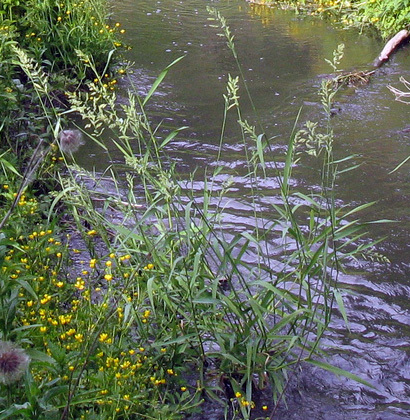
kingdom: Plantae
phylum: Tracheophyta
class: Liliopsida
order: Poales
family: Poaceae
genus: Phalaris
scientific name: Phalaris arundinacea
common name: Reed canary-grass
